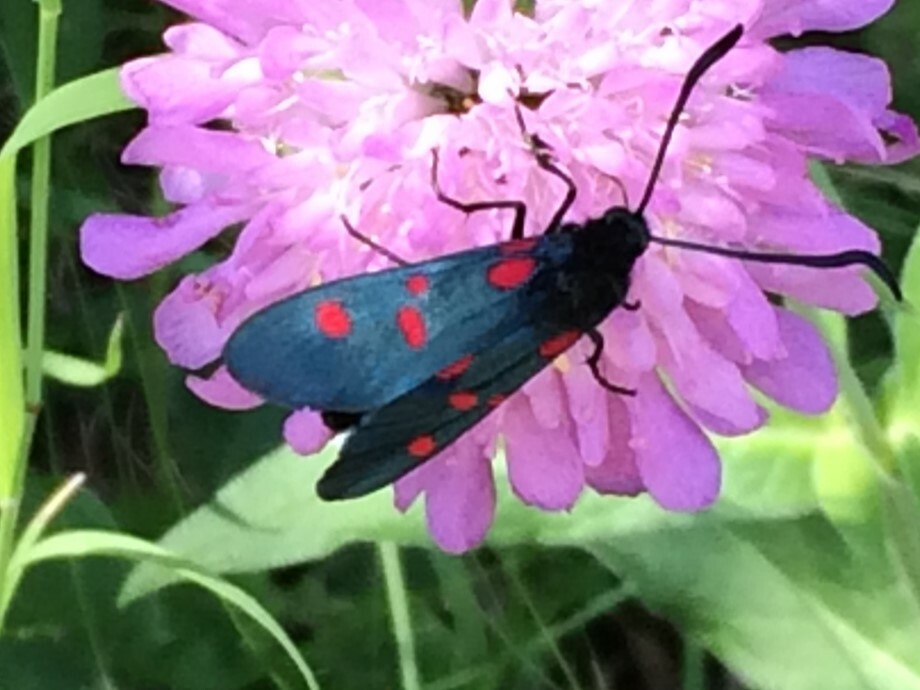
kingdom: Animalia
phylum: Arthropoda
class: Insecta
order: Lepidoptera
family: Zygaenidae
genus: Zygaena
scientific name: Zygaena lonicerae
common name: Narrow-bordered five-spot burnet
